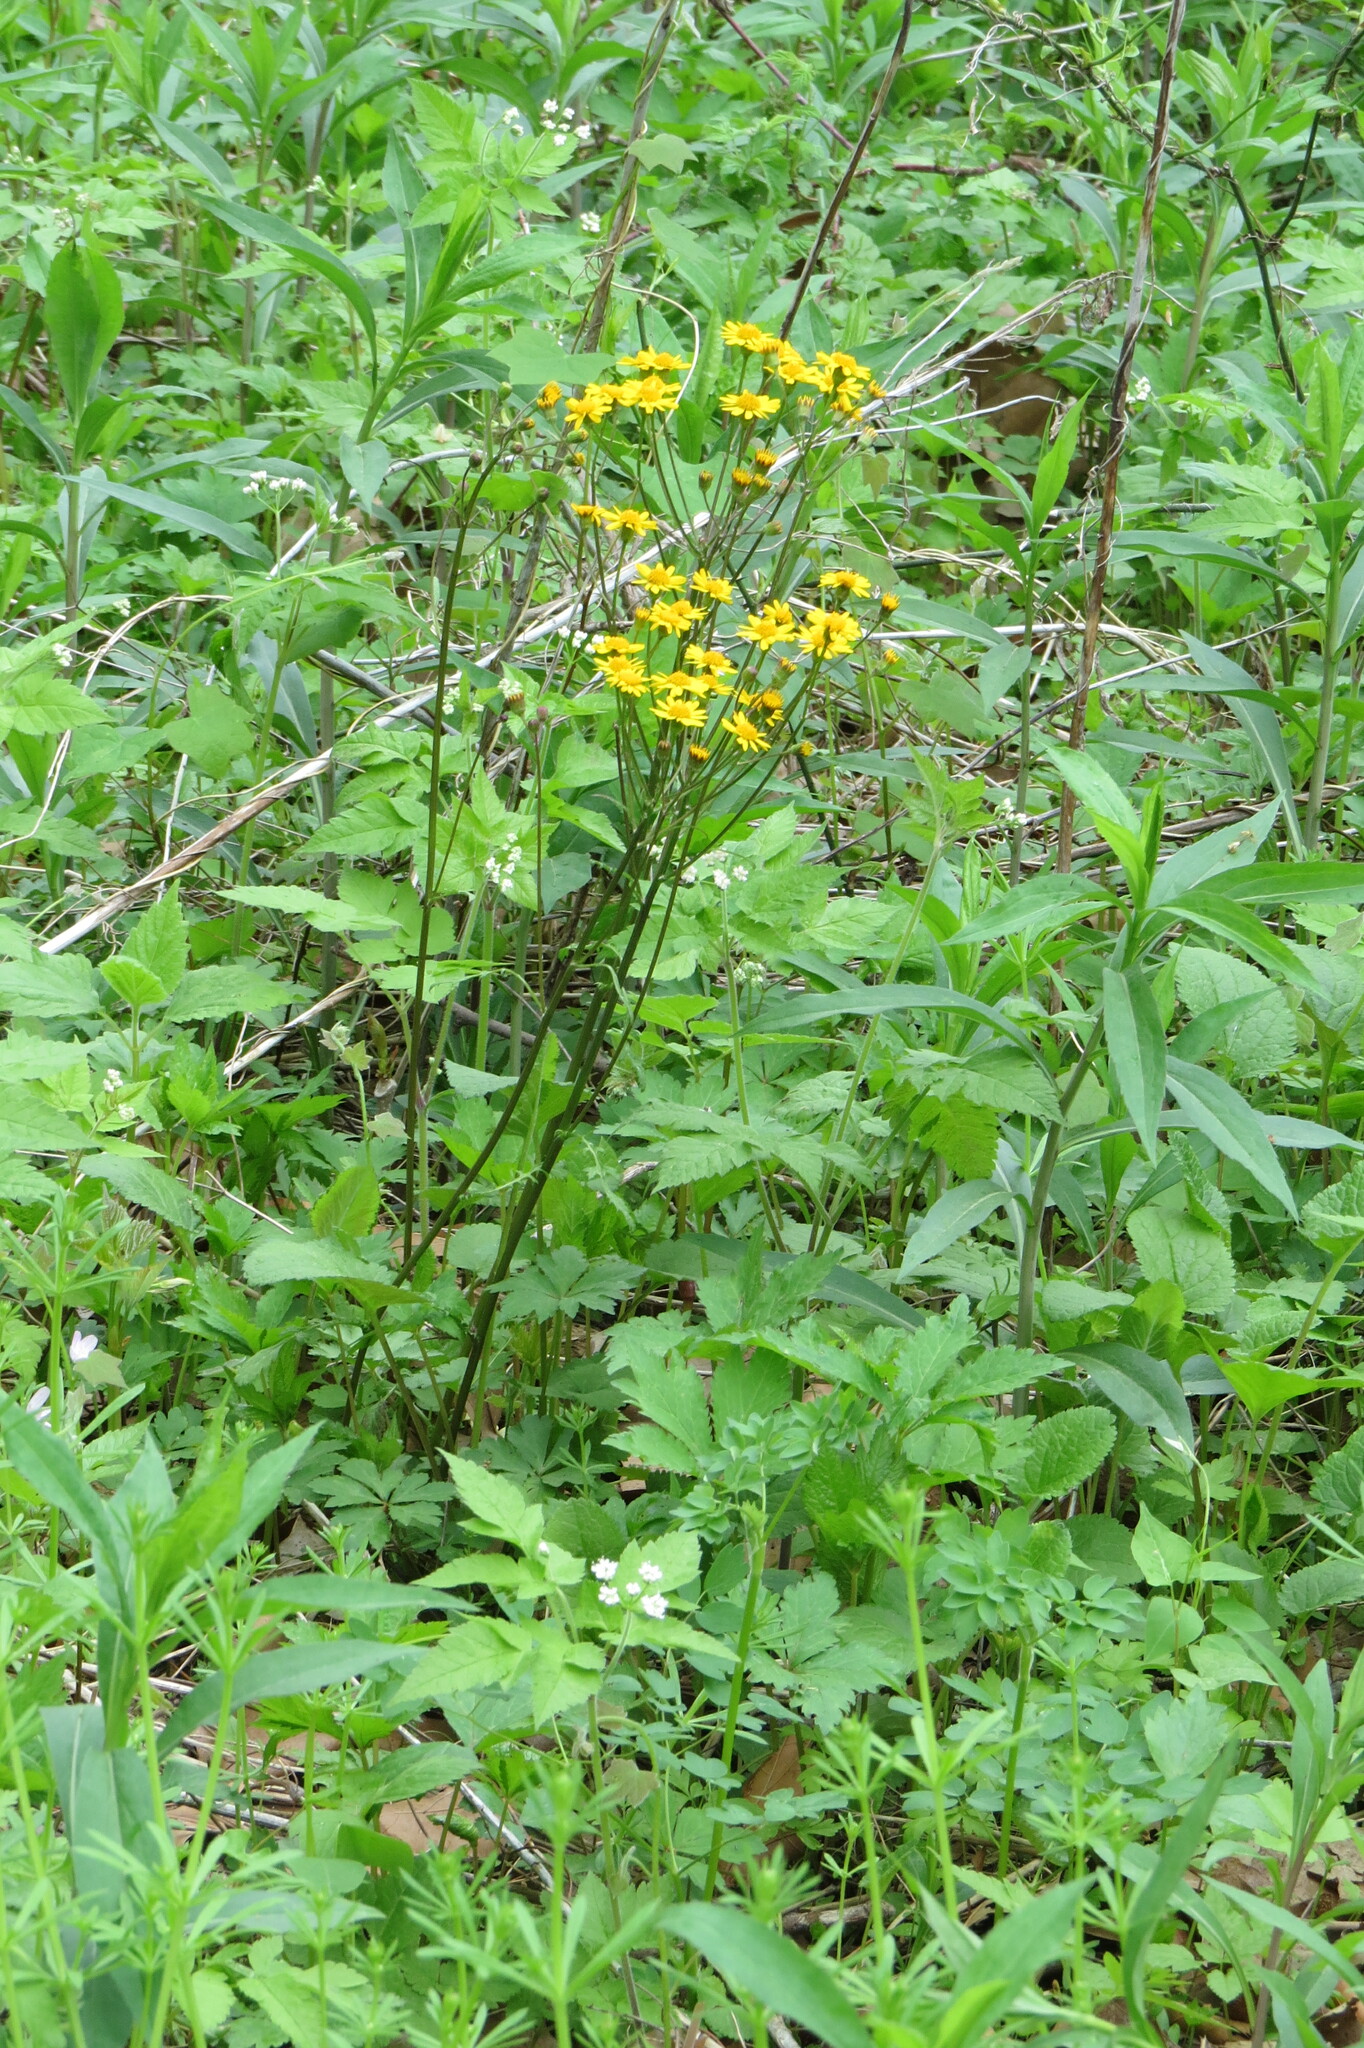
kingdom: Plantae
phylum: Tracheophyta
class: Magnoliopsida
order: Asterales
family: Asteraceae
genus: Packera
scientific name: Packera aurea
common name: Golden groundsel
